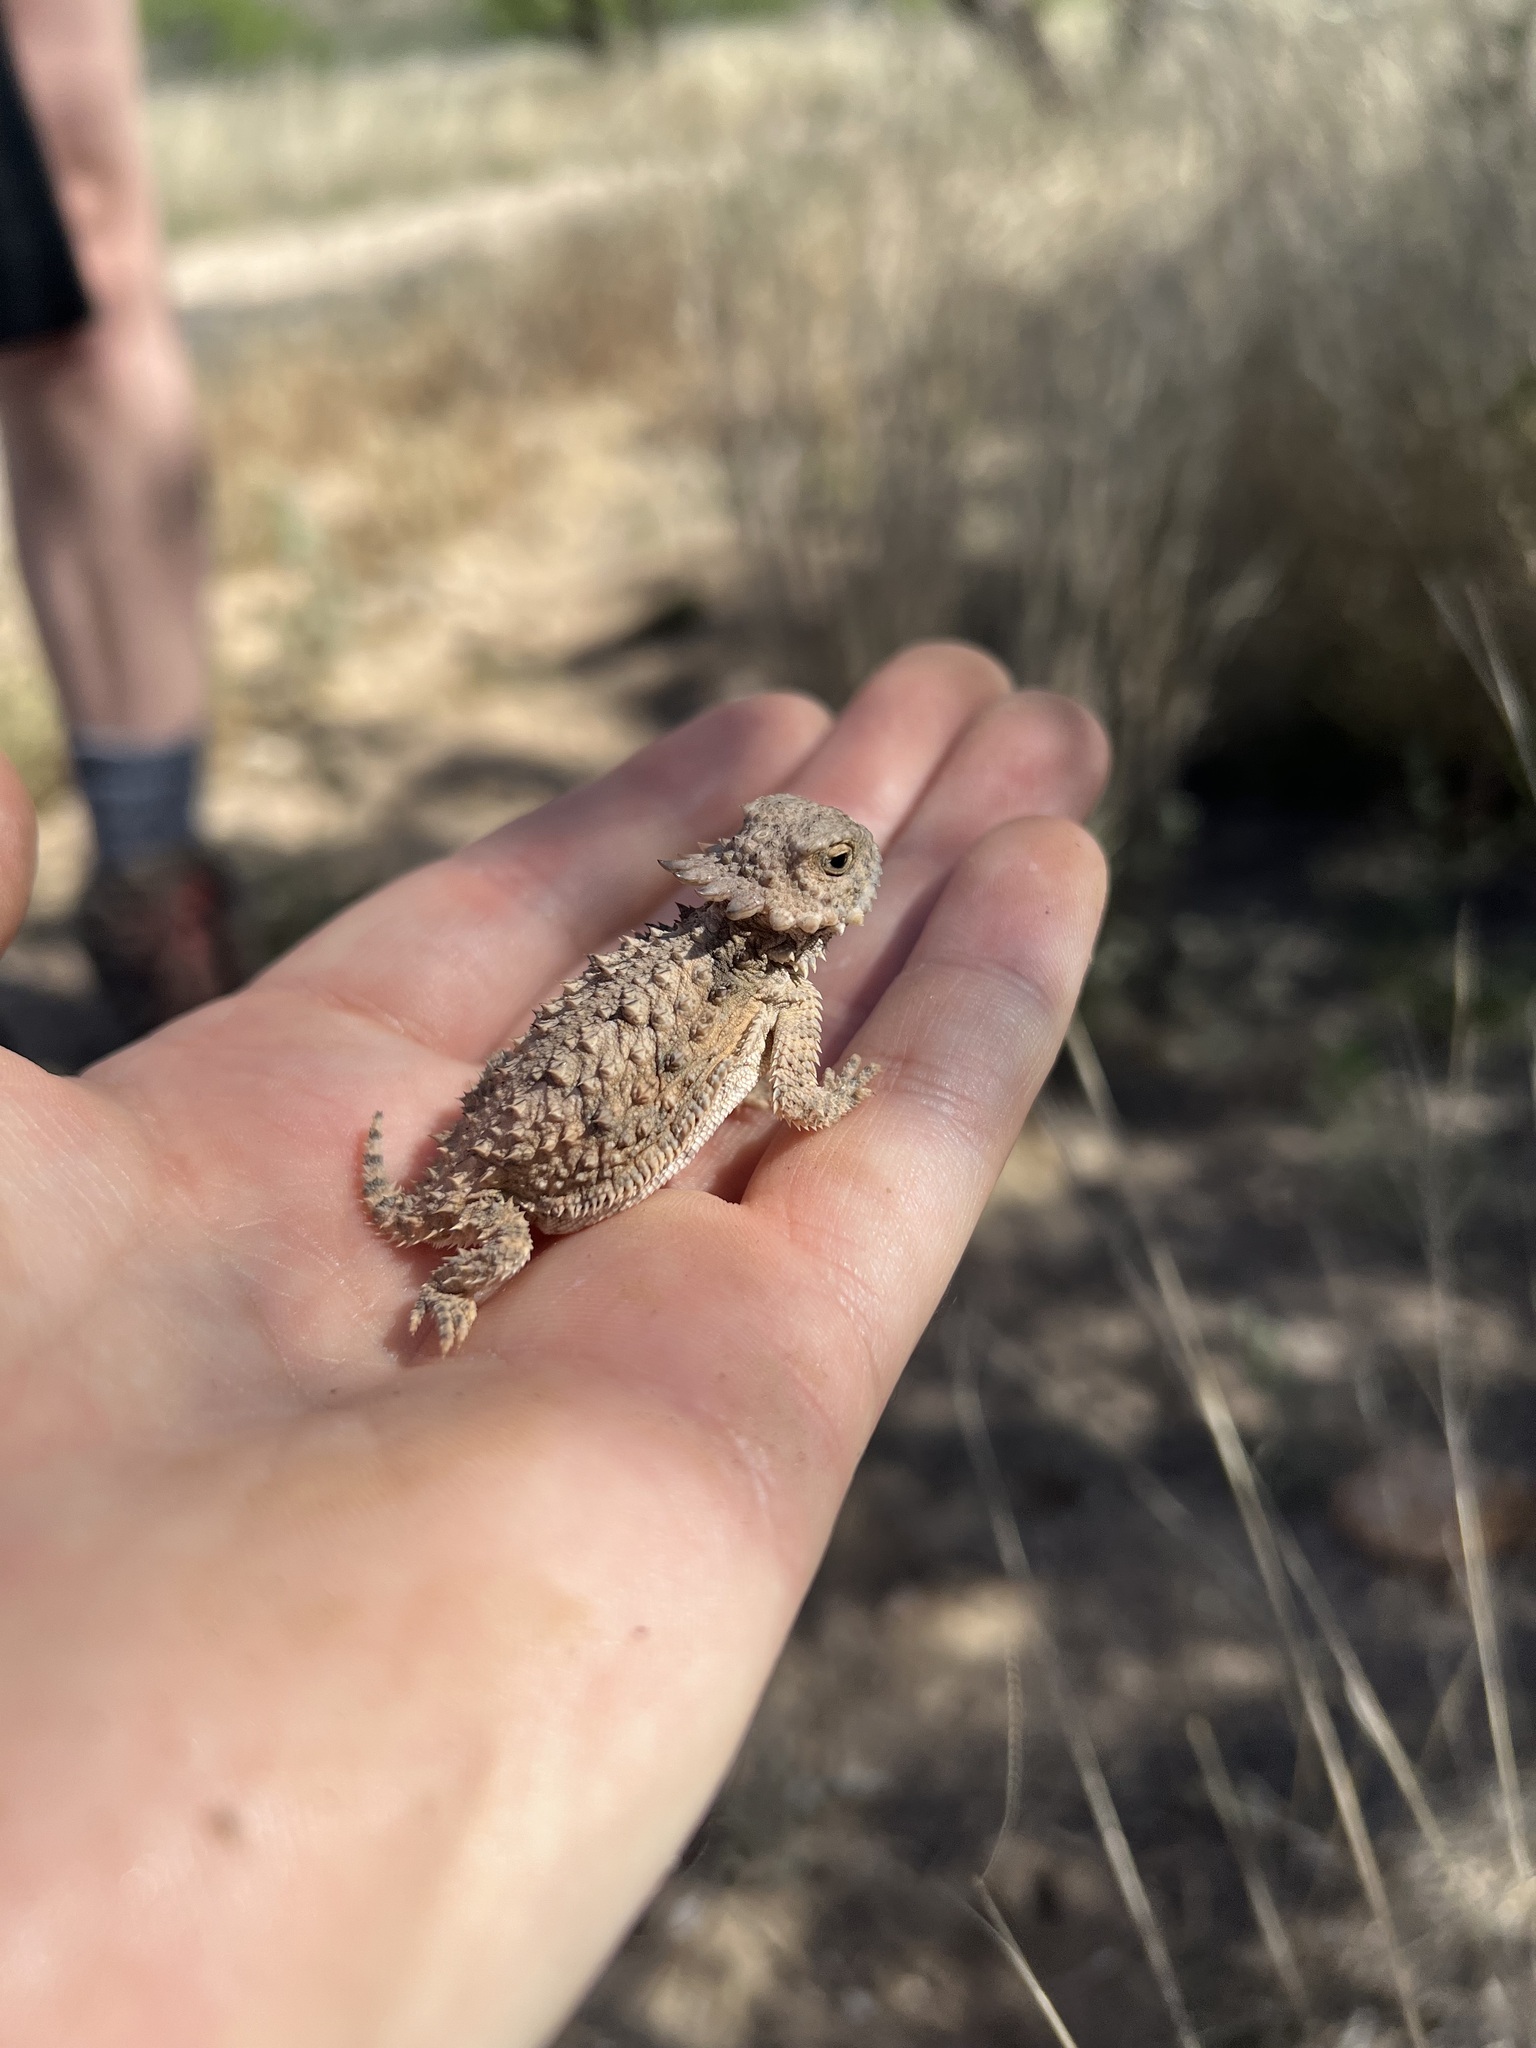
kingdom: Animalia
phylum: Chordata
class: Squamata
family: Phrynosomatidae
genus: Phrynosoma
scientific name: Phrynosoma solare
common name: Regal horned lizard
